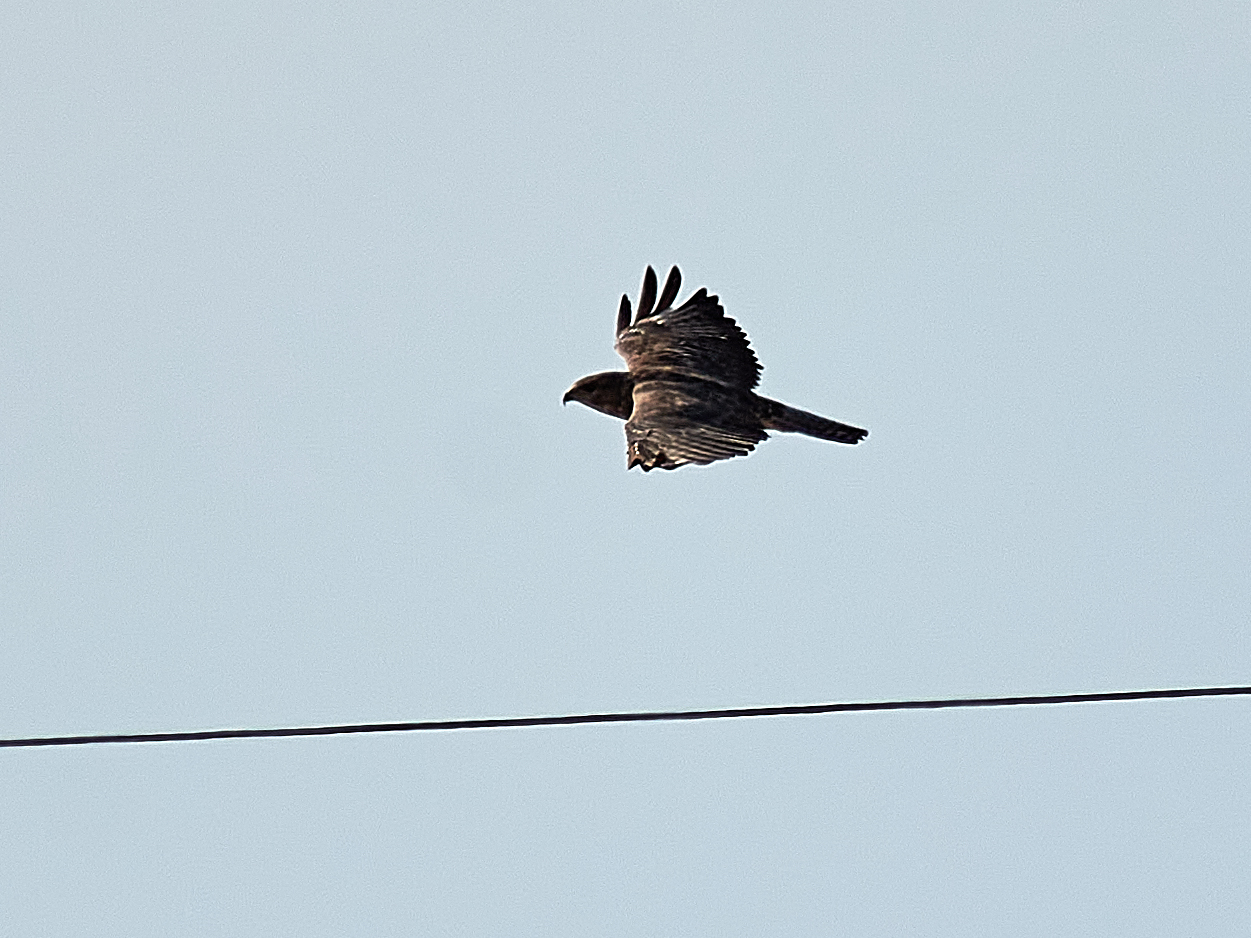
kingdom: Animalia
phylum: Chordata
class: Aves
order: Accipitriformes
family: Accipitridae
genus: Buteo
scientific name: Buteo buteo
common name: Common buzzard
